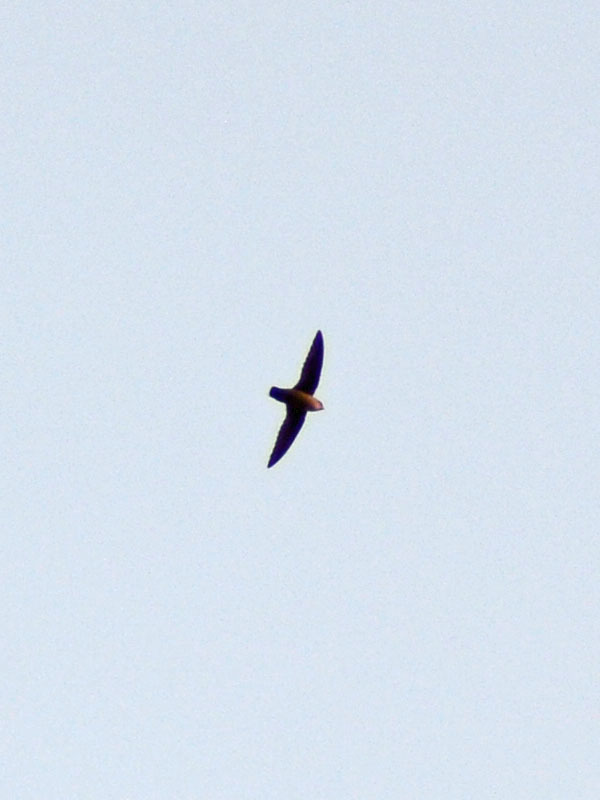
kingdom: Animalia
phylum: Chordata
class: Aves
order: Apodiformes
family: Apodidae
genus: Chaetura
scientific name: Chaetura vauxi
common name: Vaux's swift
